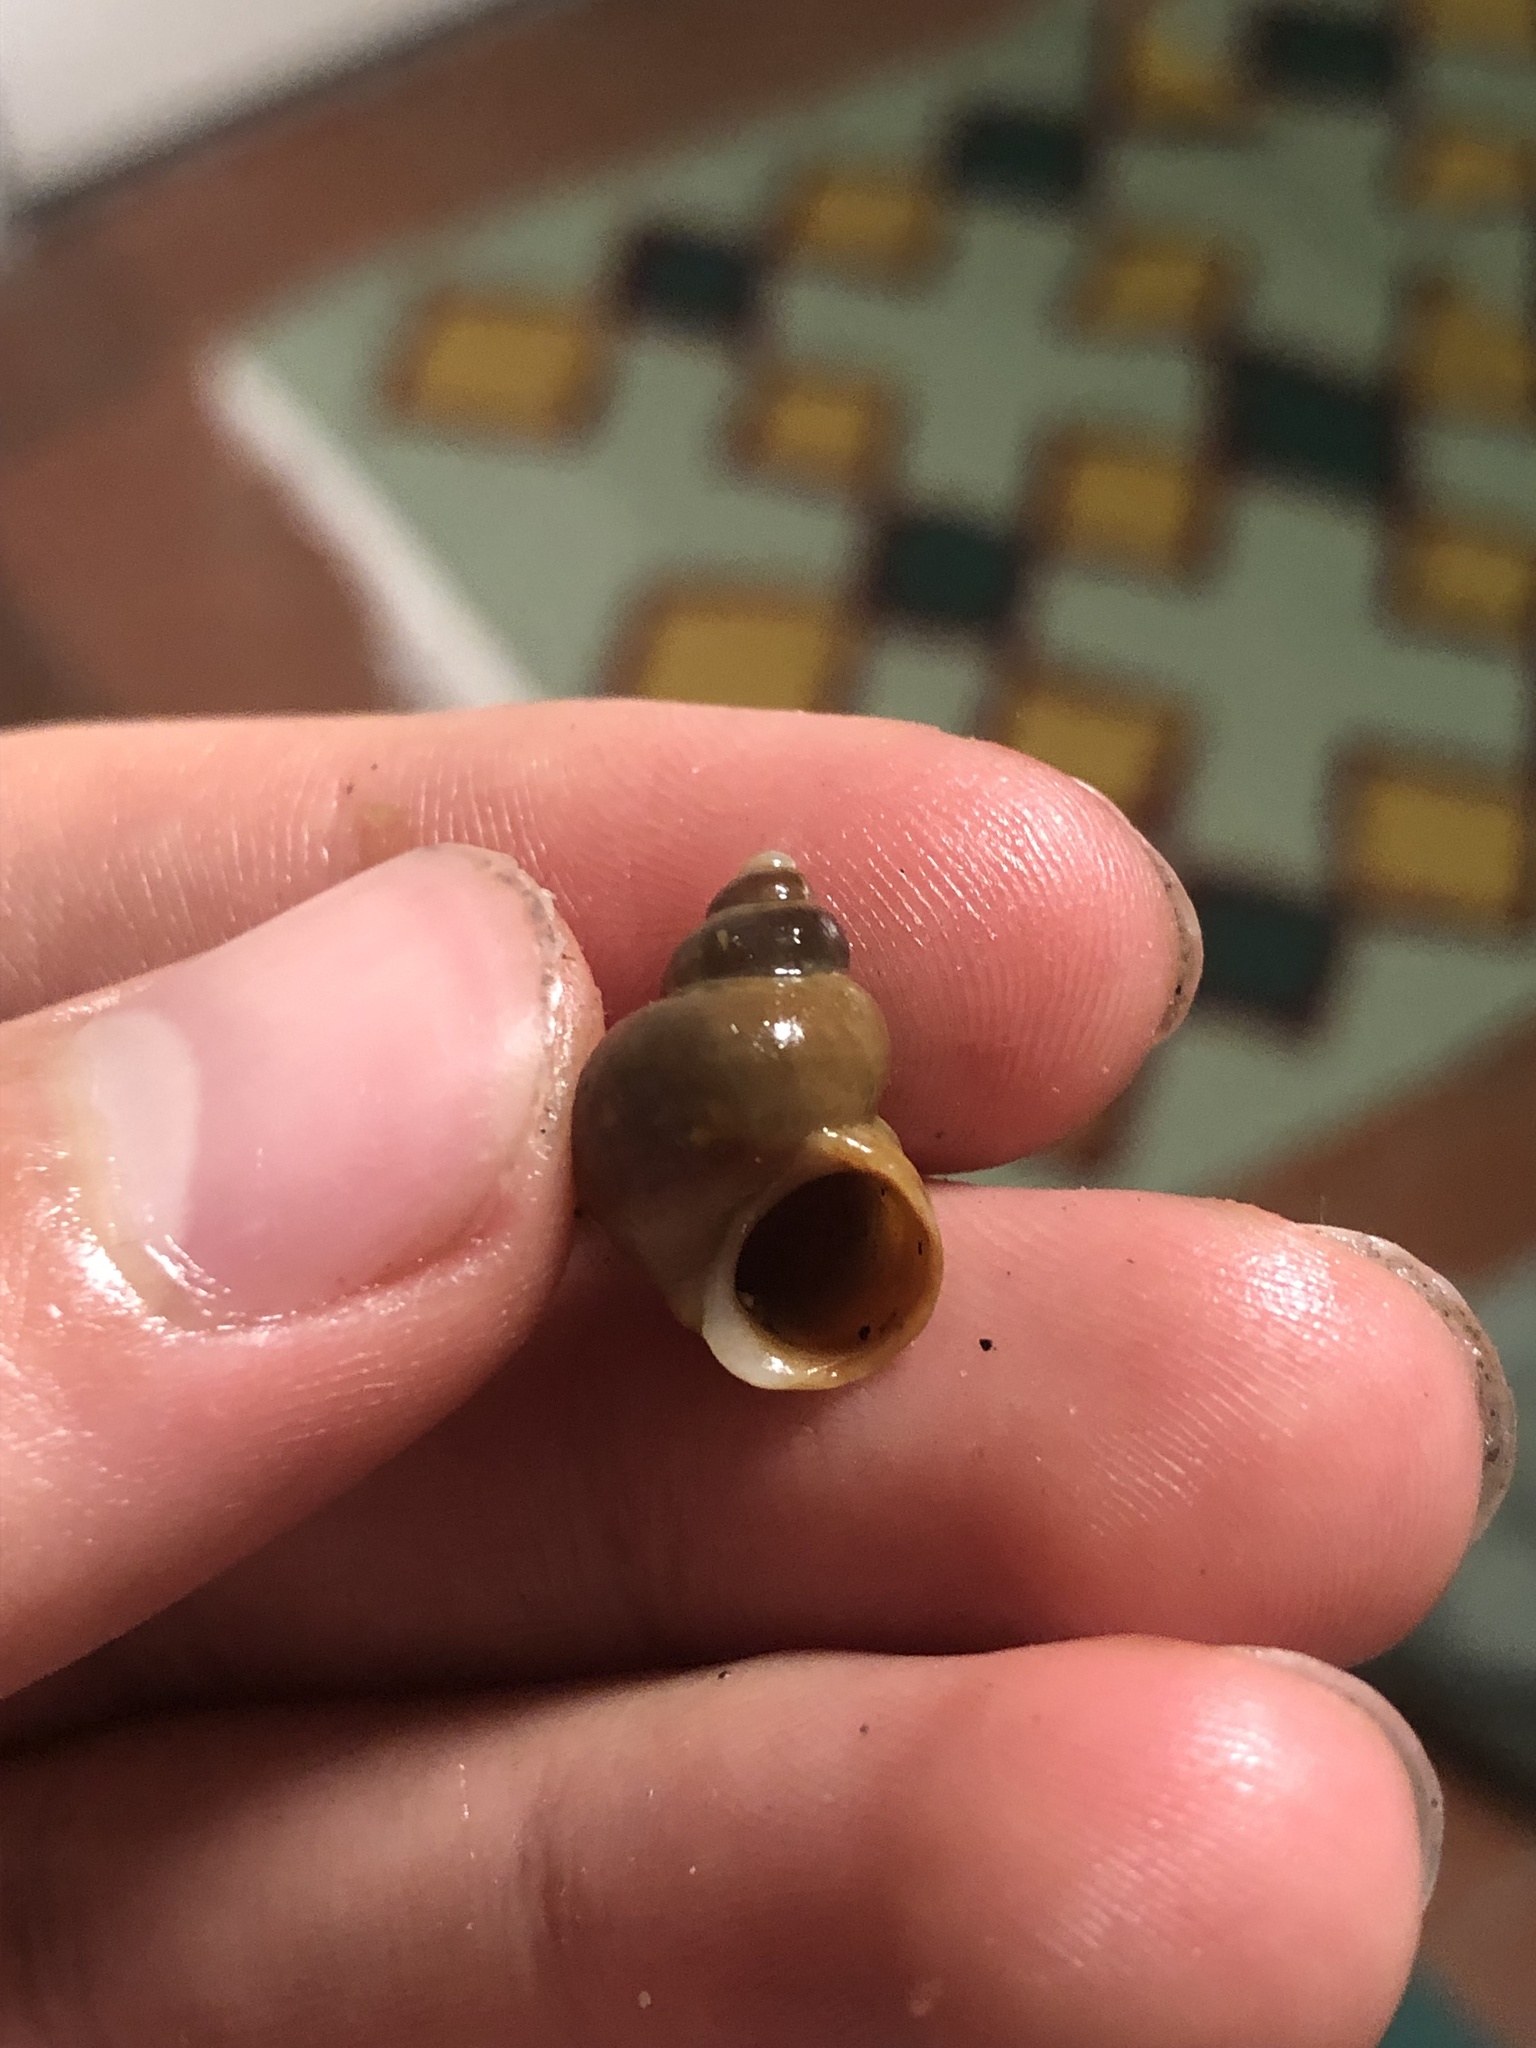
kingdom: Animalia
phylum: Mollusca
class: Gastropoda
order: Littorinimorpha
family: Littorinidae
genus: Littorina
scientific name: Littorina saxatilis
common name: Black-lined periwinkle
